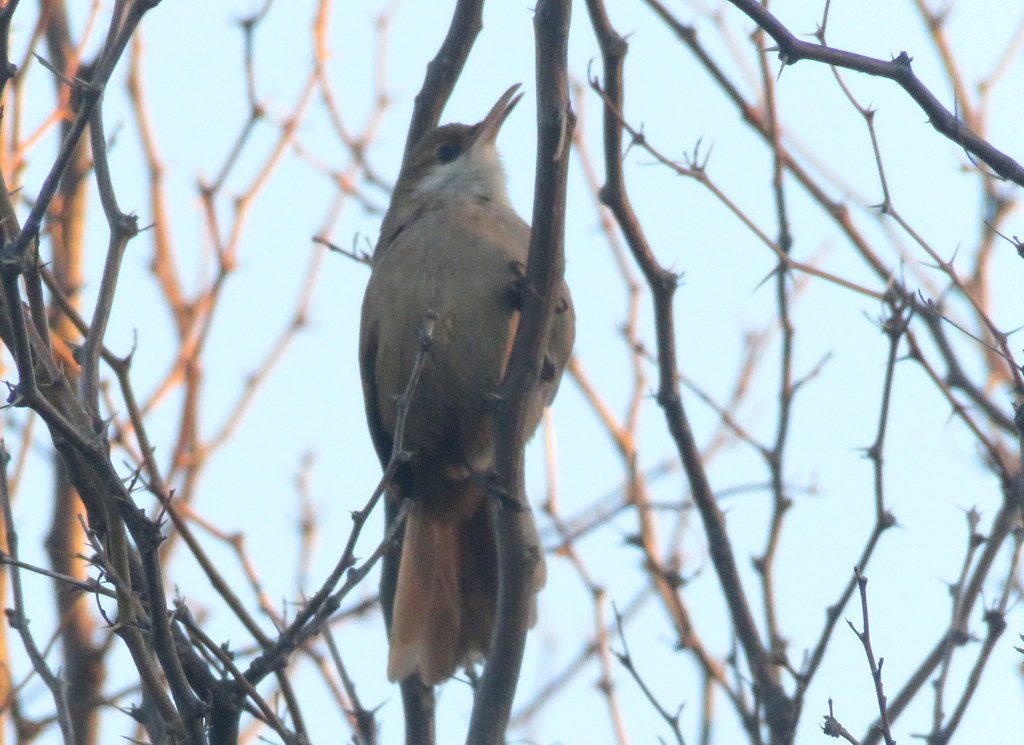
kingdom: Animalia
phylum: Chordata
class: Aves
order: Passeriformes
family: Furnariidae
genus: Upucerthia
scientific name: Upucerthia certhioides
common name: Chaco earthcreeper
